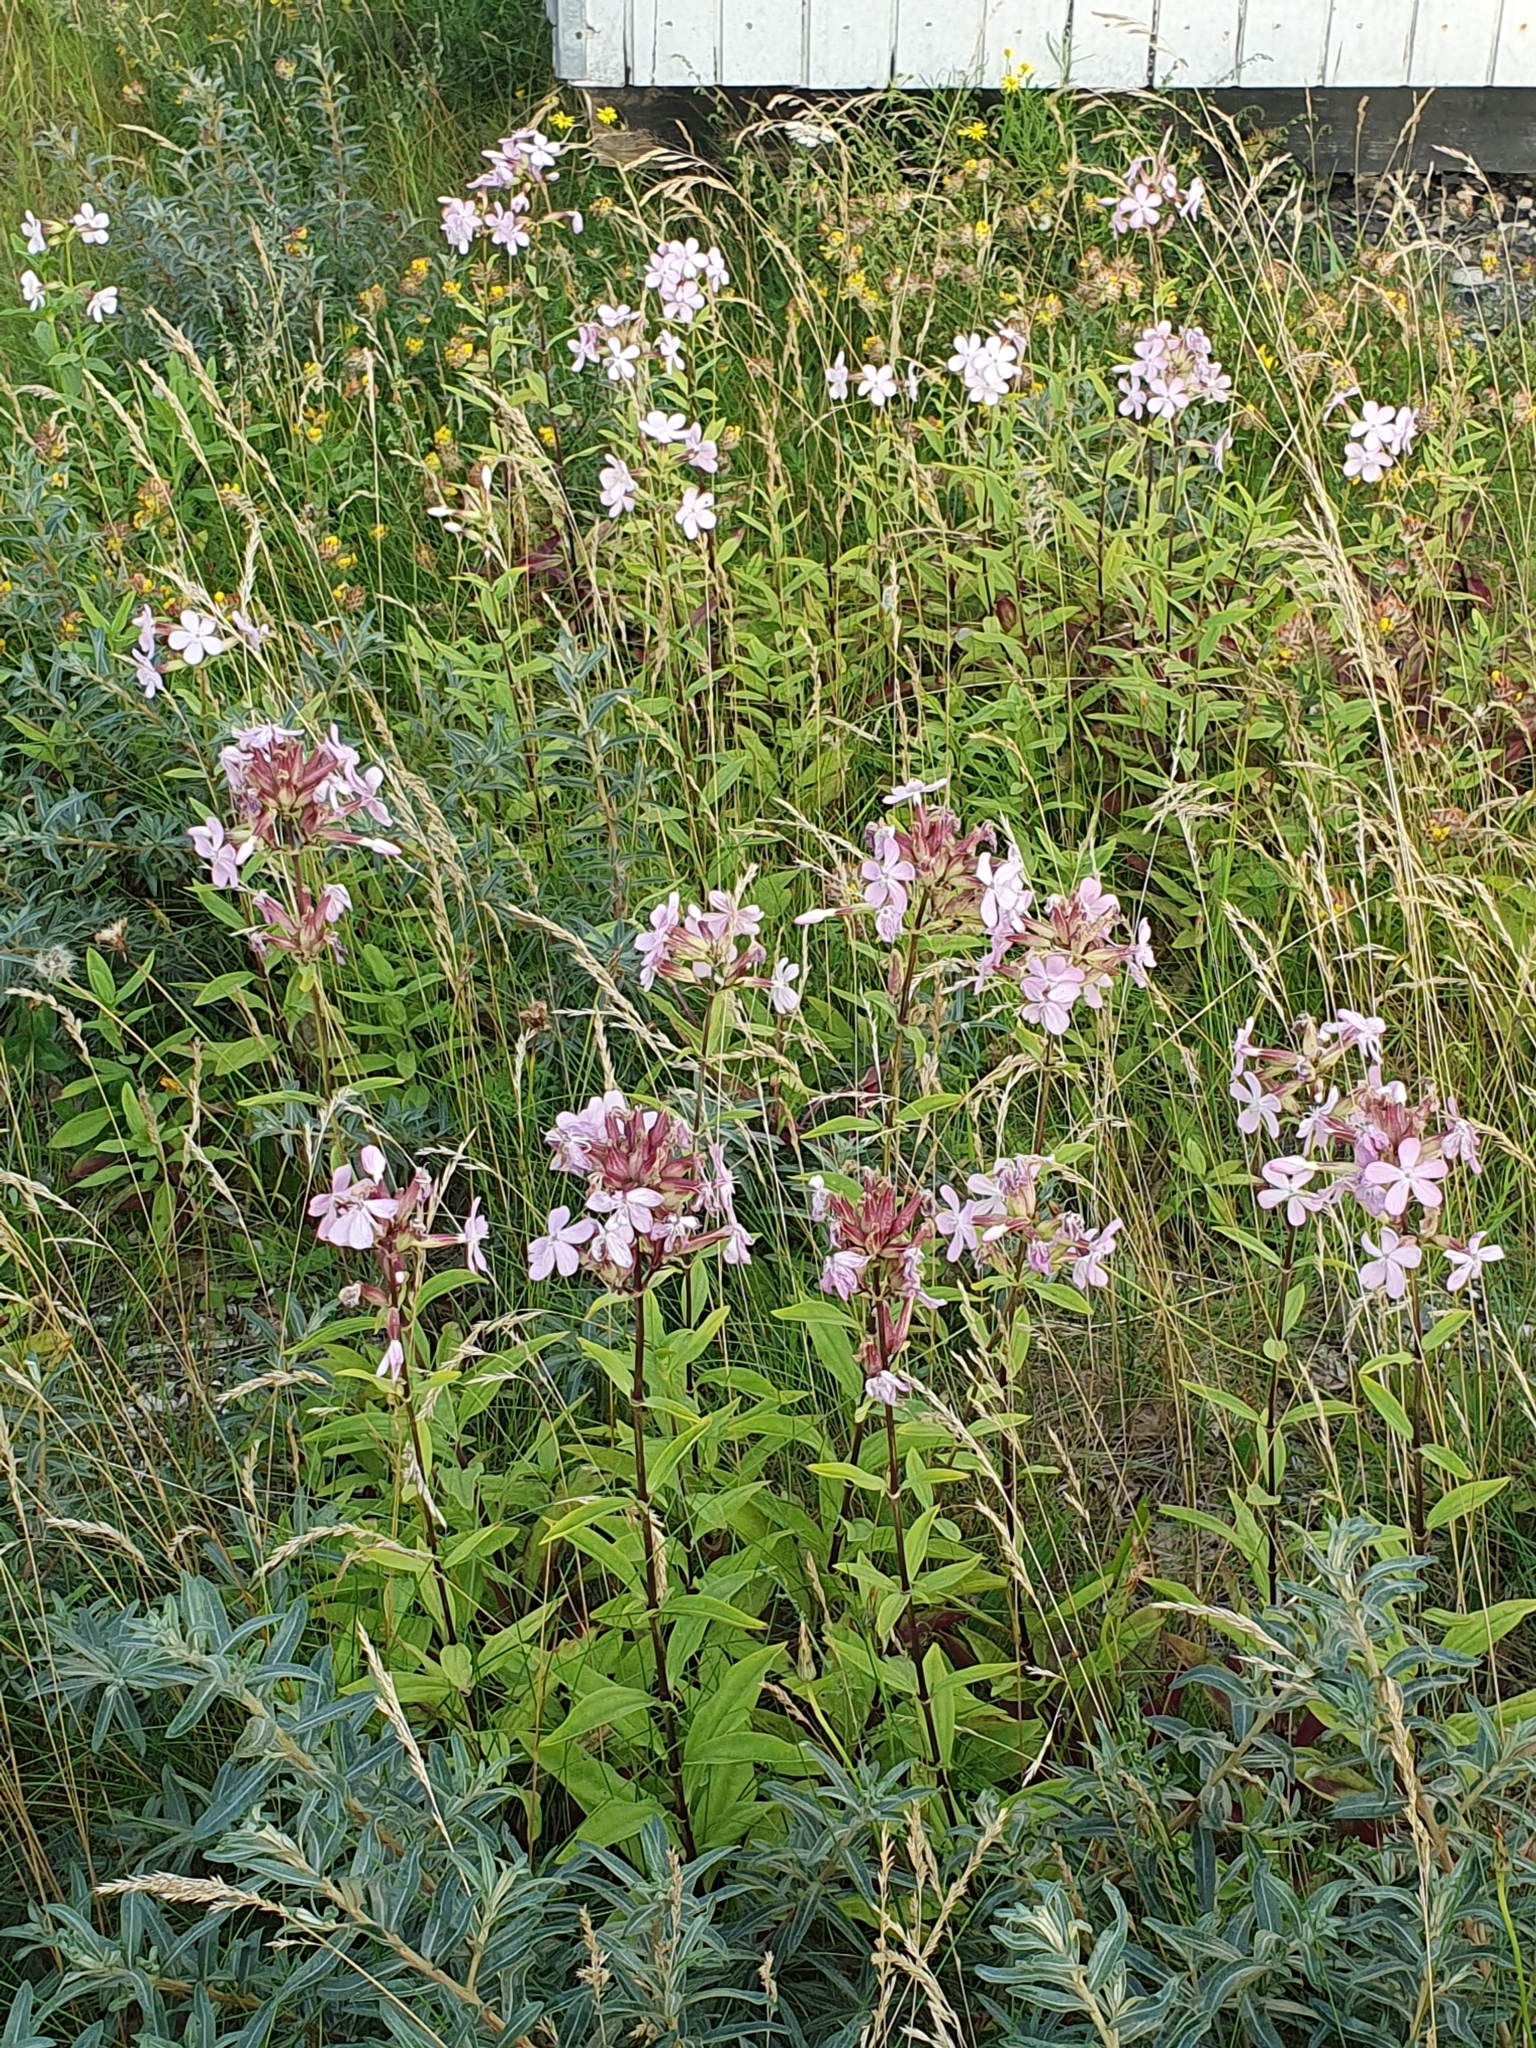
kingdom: Plantae
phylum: Tracheophyta
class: Magnoliopsida
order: Caryophyllales
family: Caryophyllaceae
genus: Saponaria
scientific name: Saponaria officinalis
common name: Soapwort
